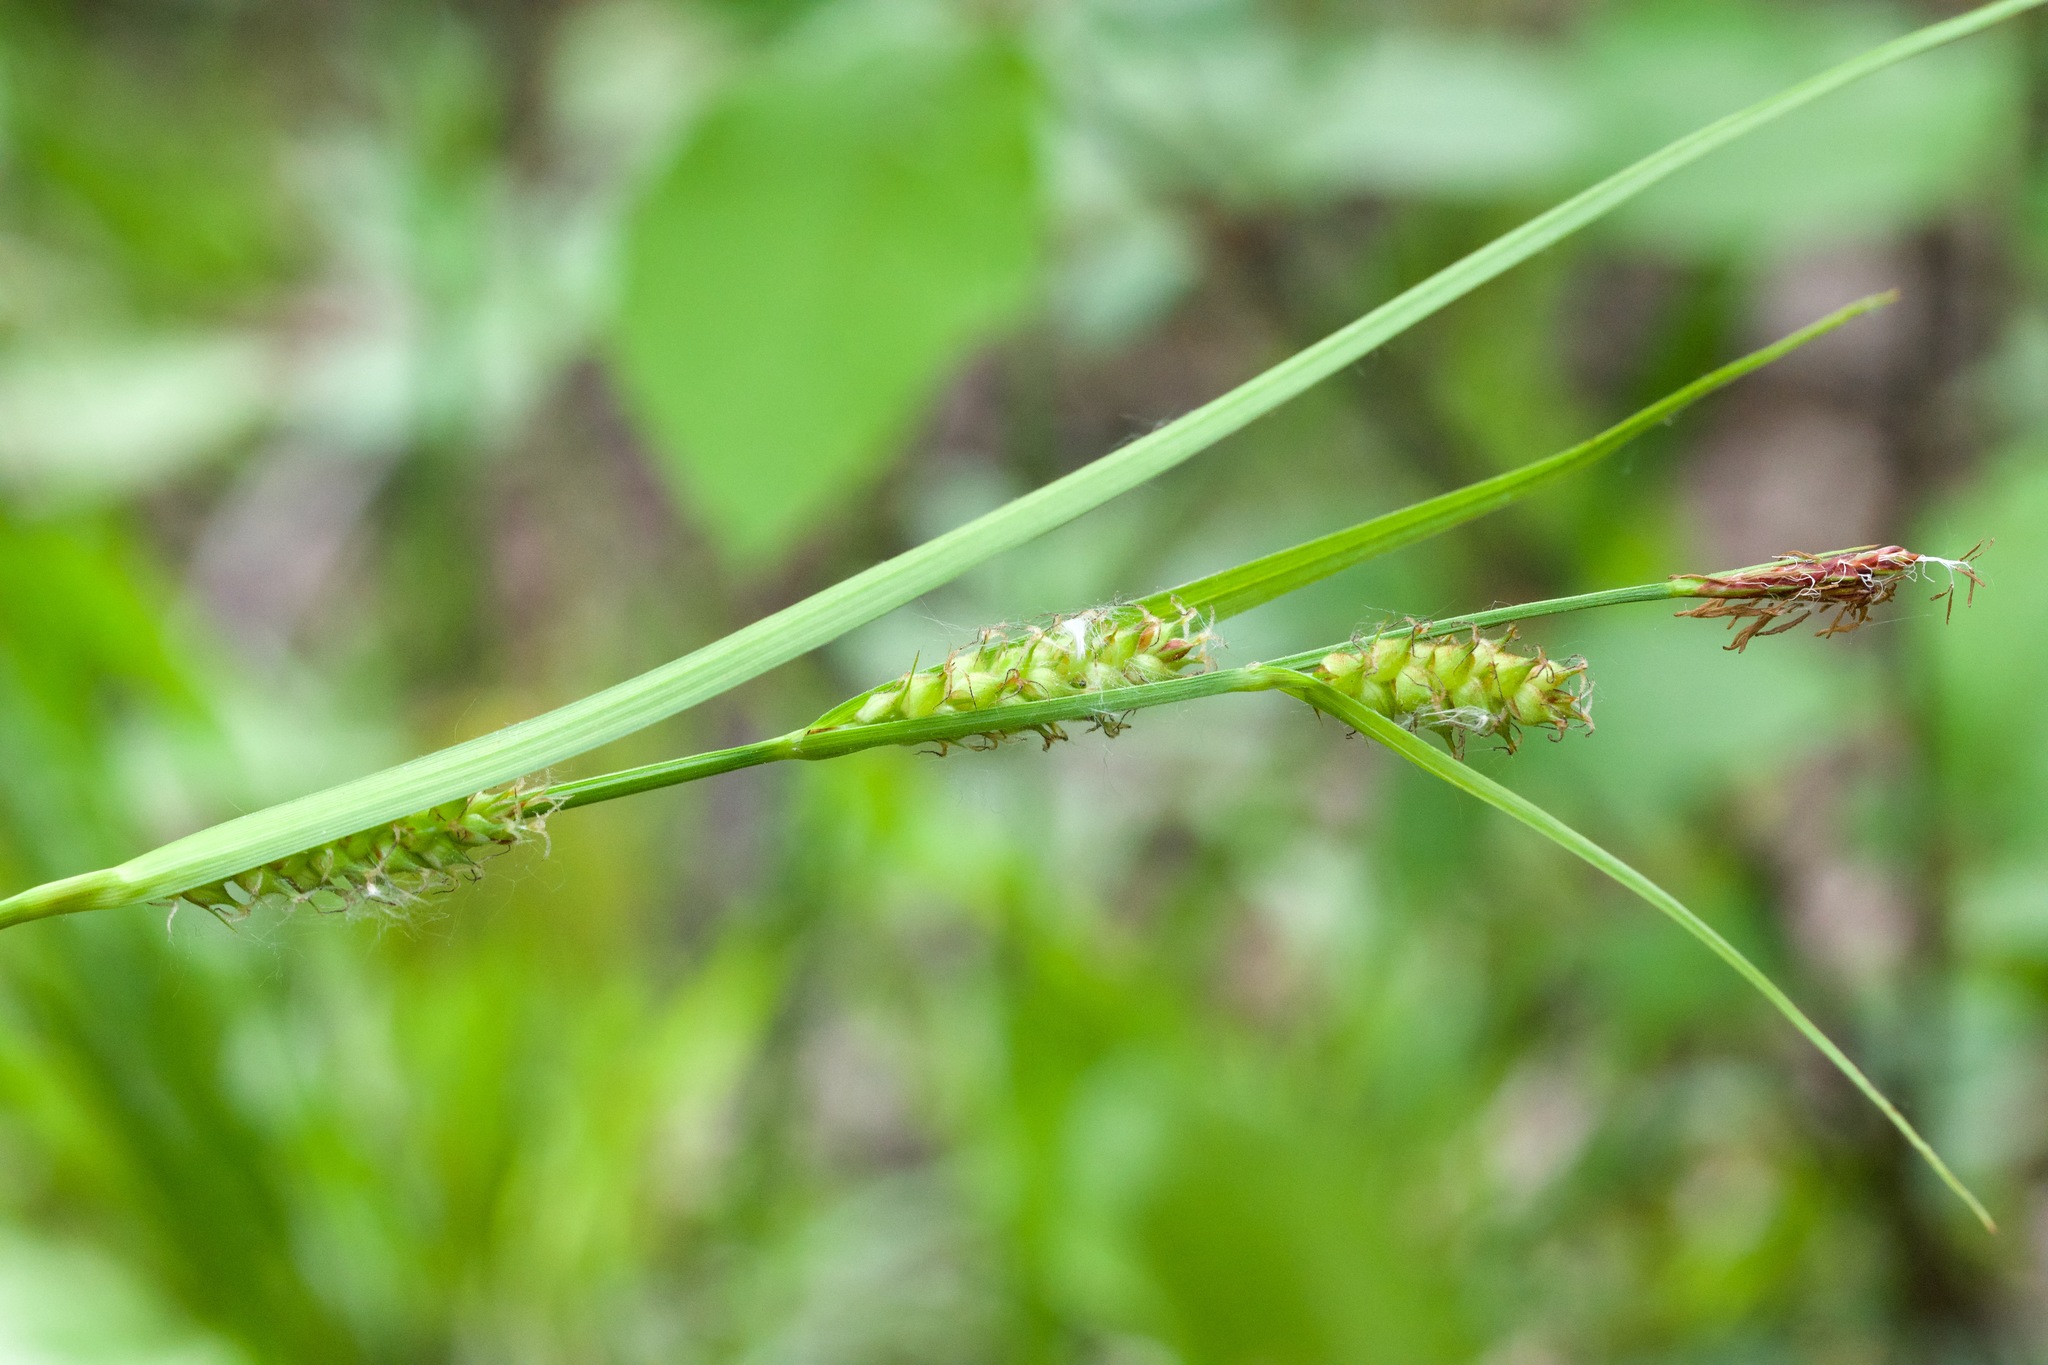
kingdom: Plantae
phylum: Tracheophyta
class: Liliopsida
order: Poales
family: Cyperaceae
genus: Carex
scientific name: Carex houghtoniana
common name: Houghton's sedge
